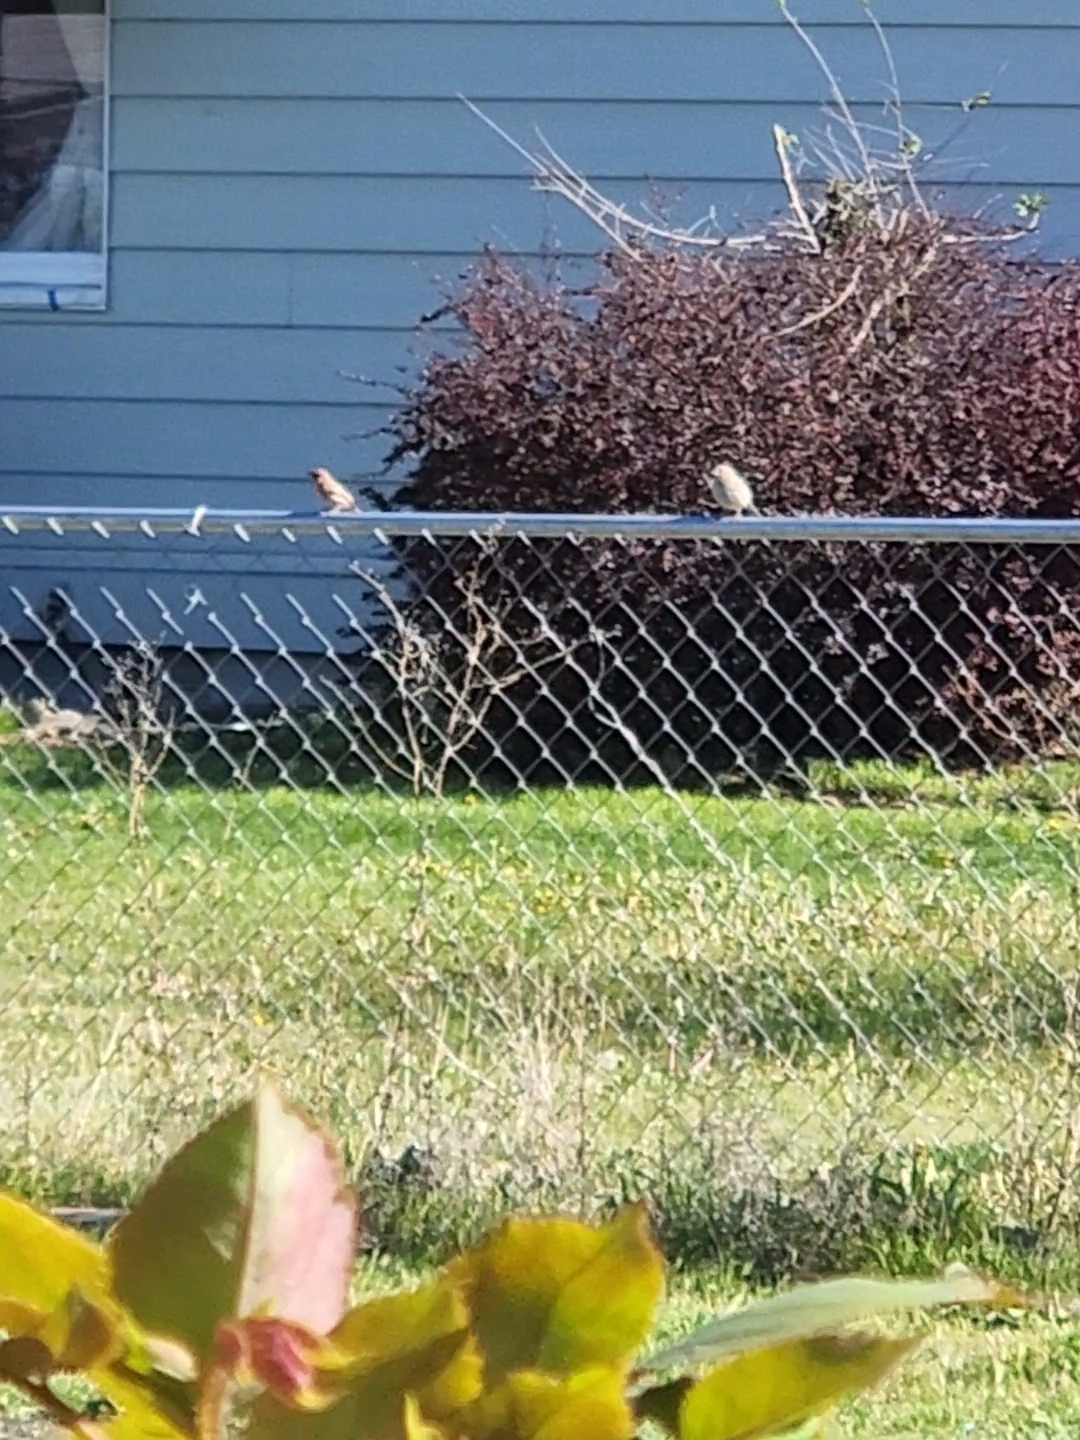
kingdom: Animalia
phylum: Chordata
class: Aves
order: Passeriformes
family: Fringillidae
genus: Haemorhous
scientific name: Haemorhous mexicanus
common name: House finch
